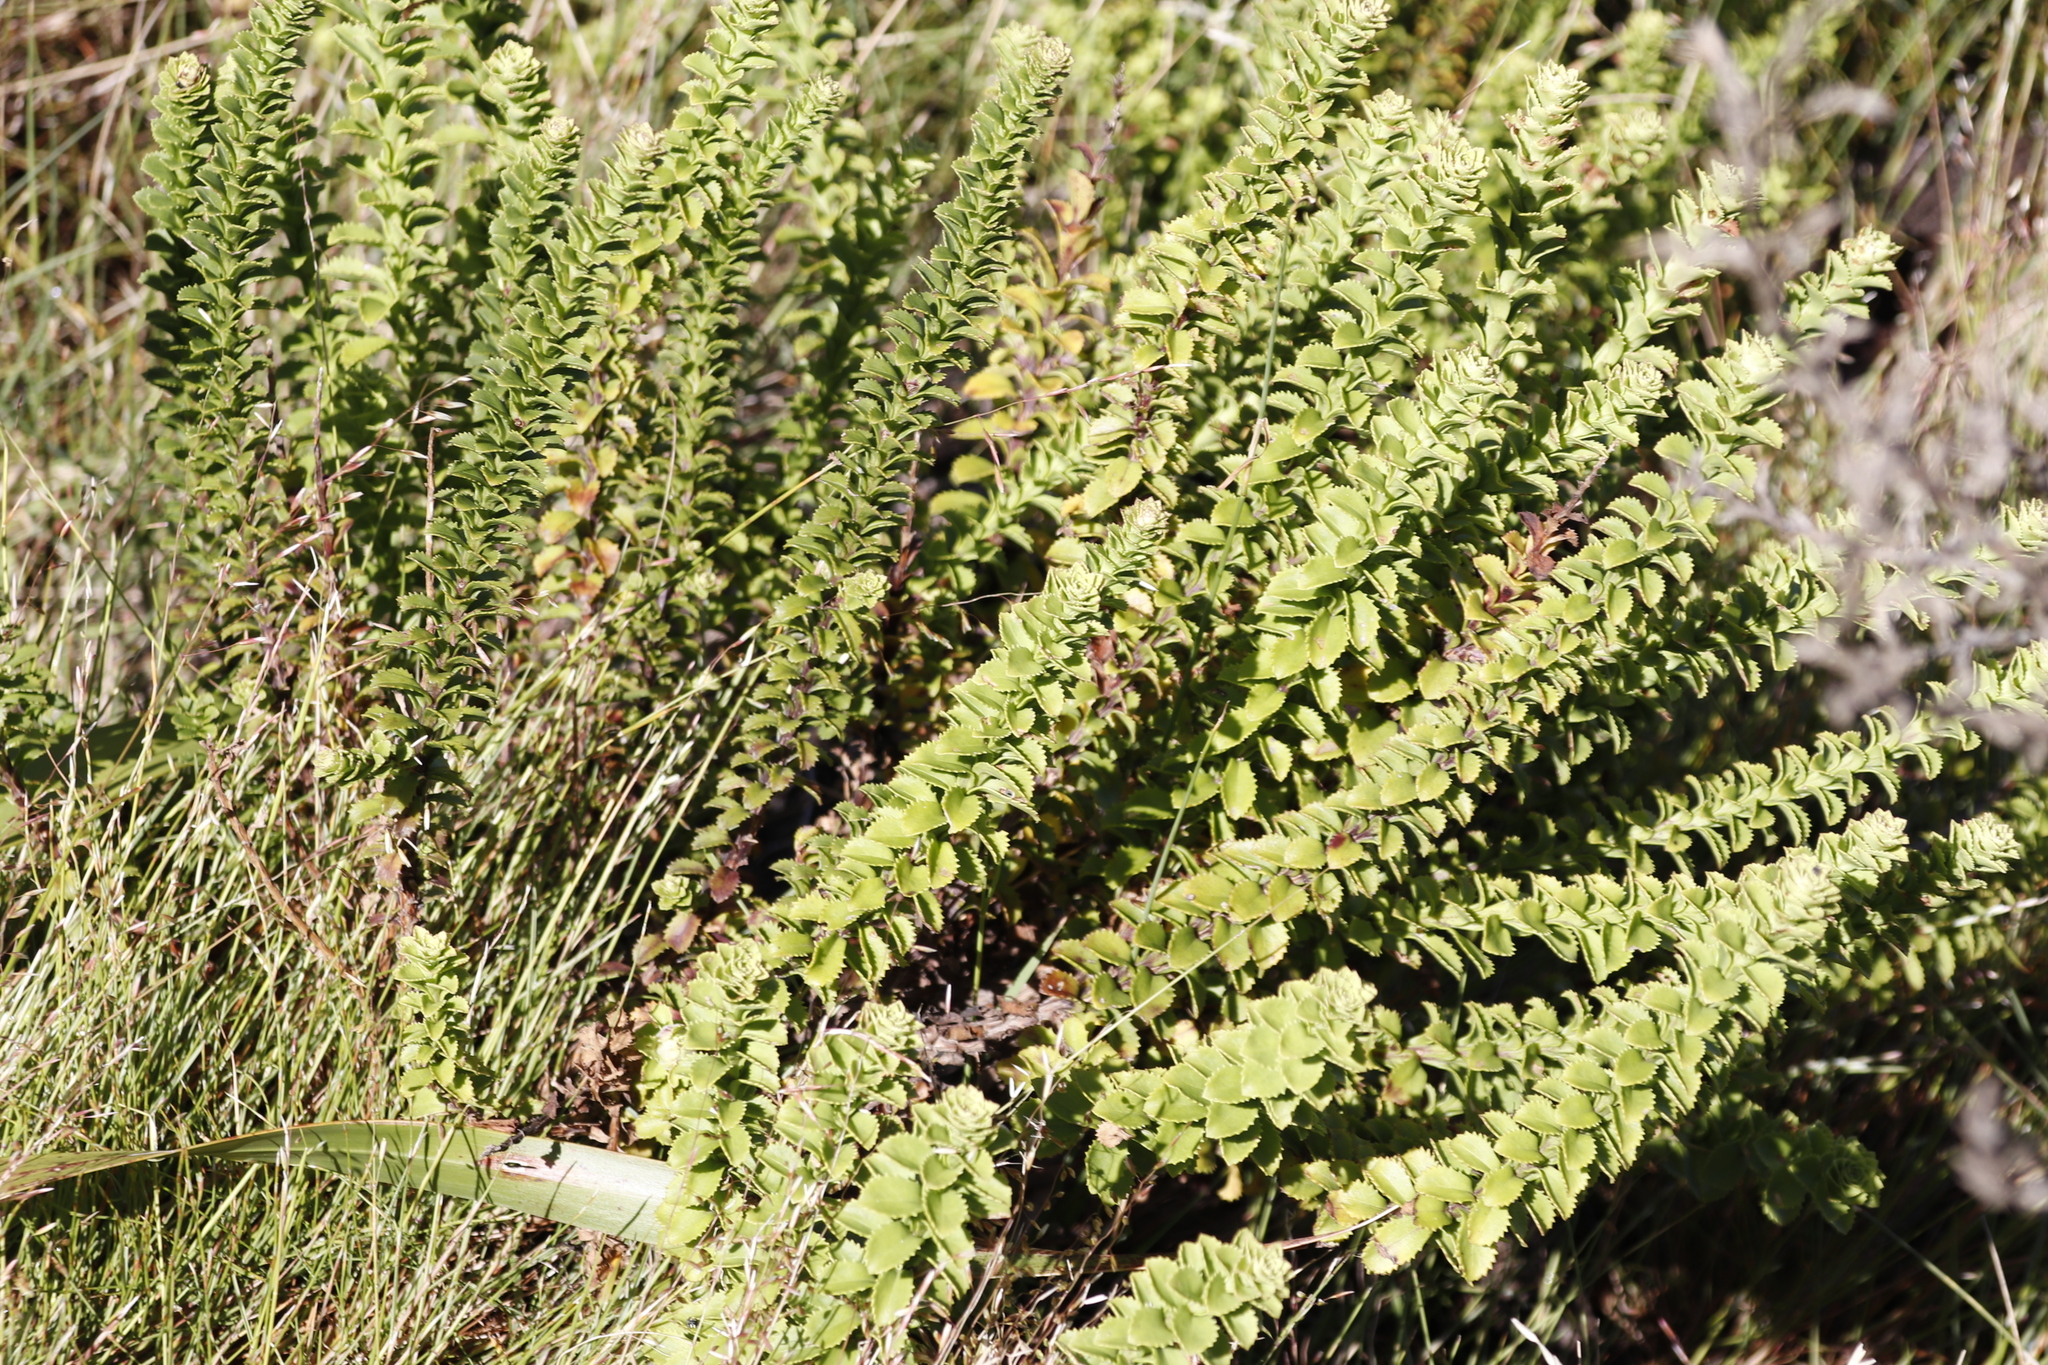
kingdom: Plantae
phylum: Tracheophyta
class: Magnoliopsida
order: Lamiales
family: Scrophulariaceae
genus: Pseudoselago
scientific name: Pseudoselago serrata
